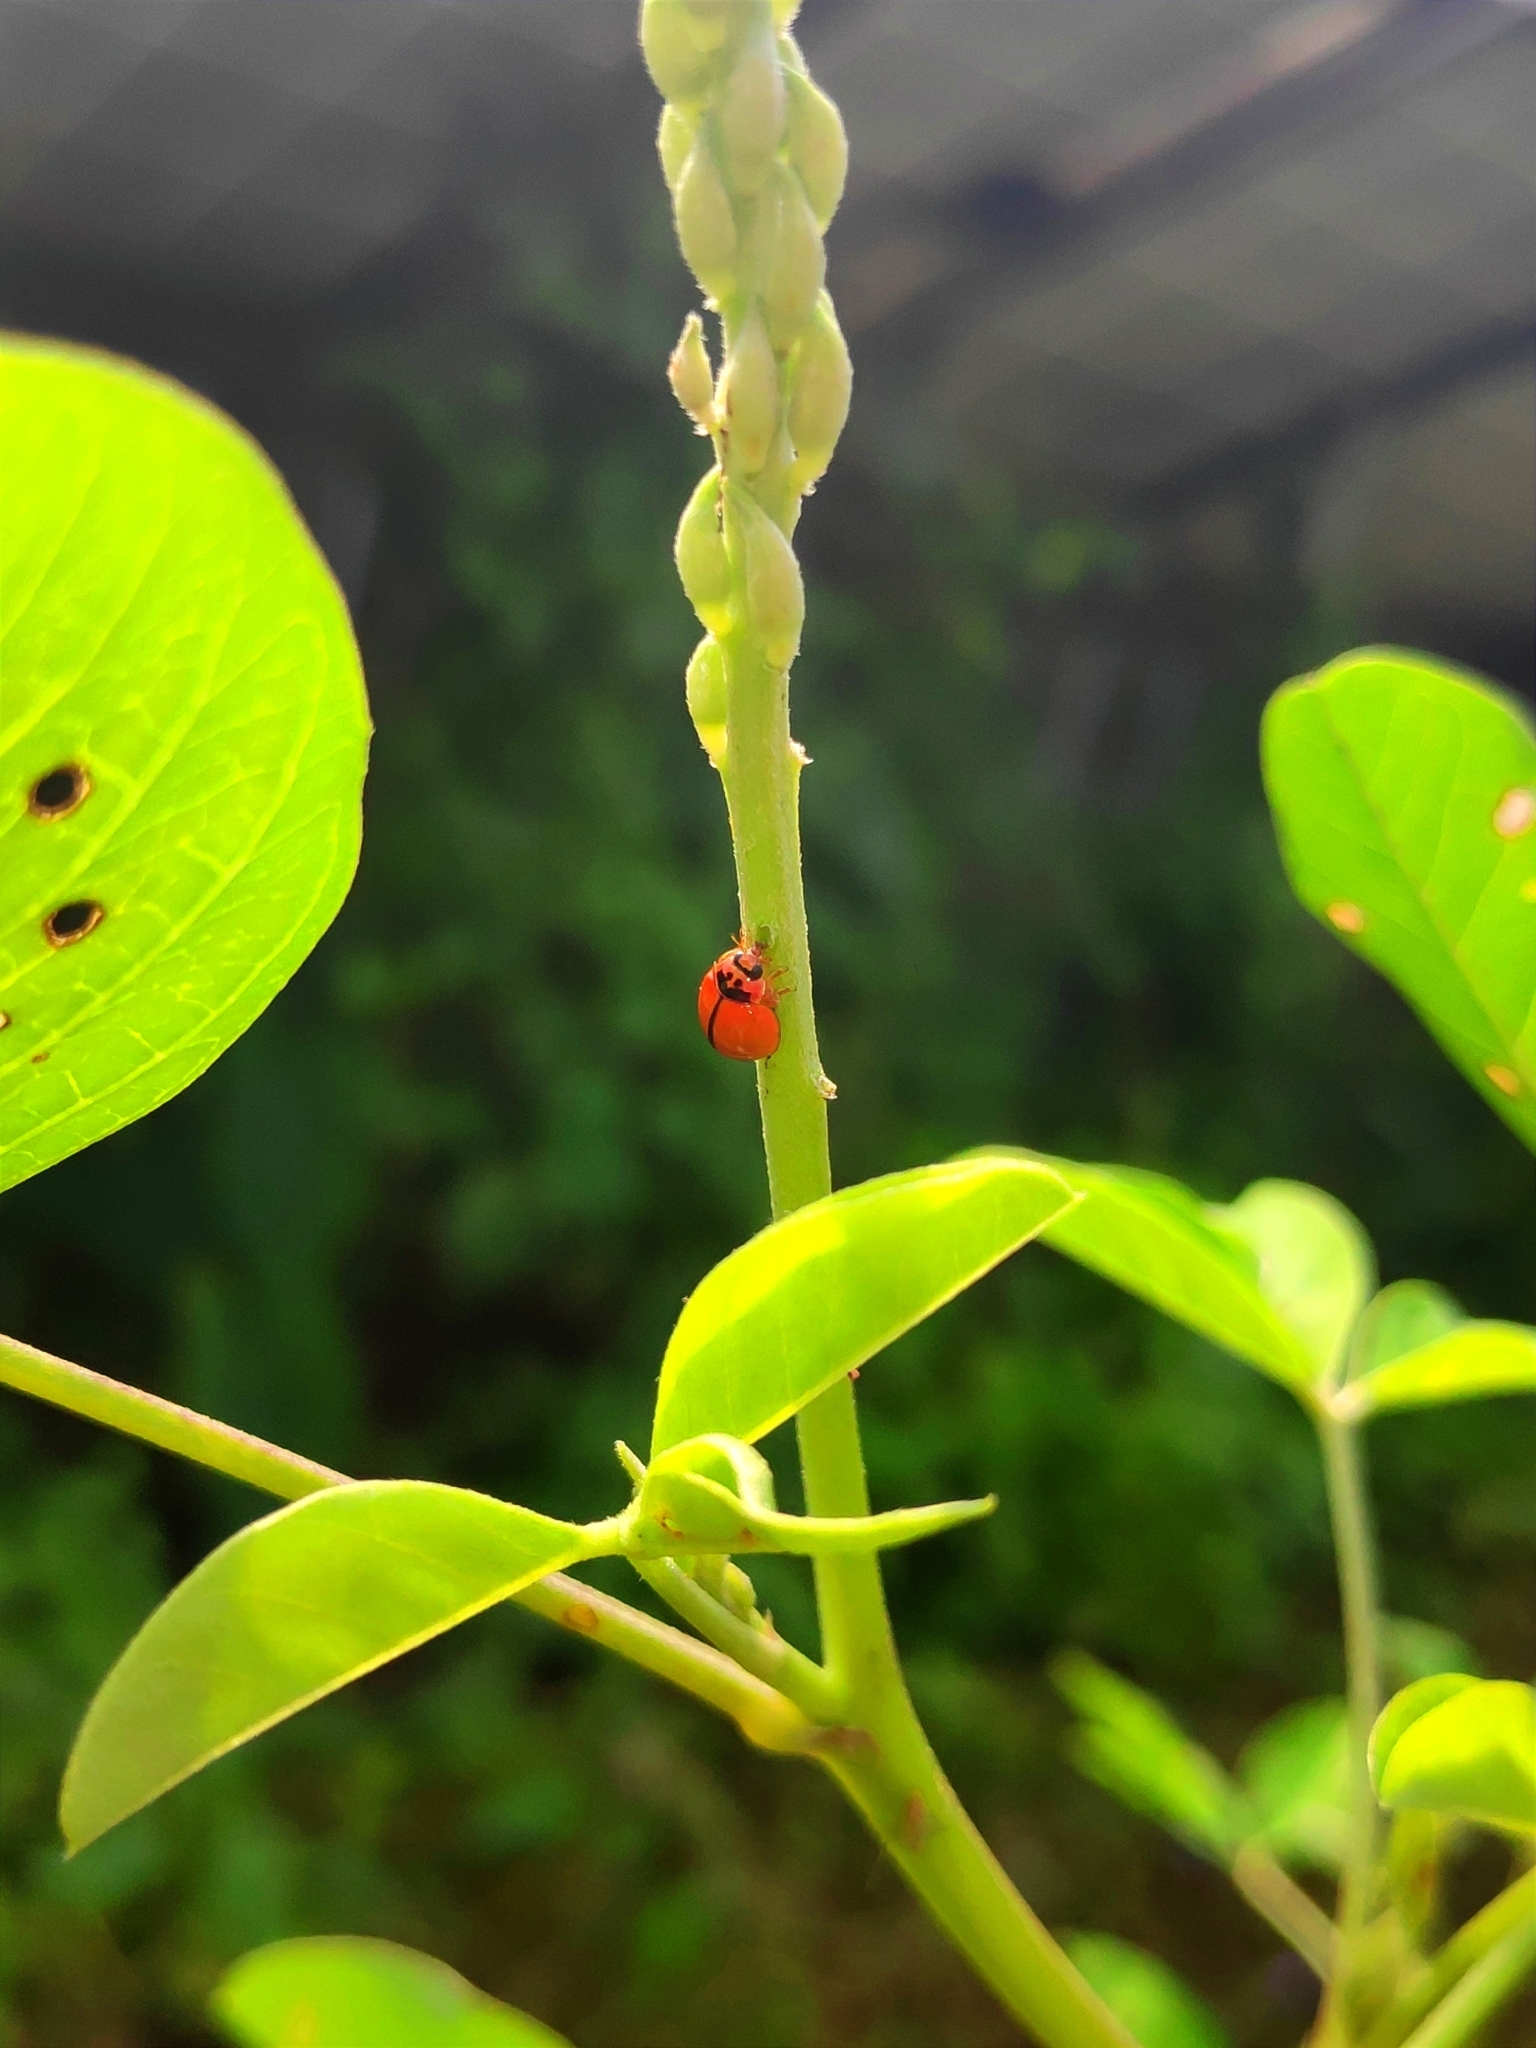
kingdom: Animalia
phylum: Arthropoda
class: Insecta
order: Coleoptera
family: Coccinellidae
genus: Micraspis
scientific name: Micraspis discolor
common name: Lady beetle
